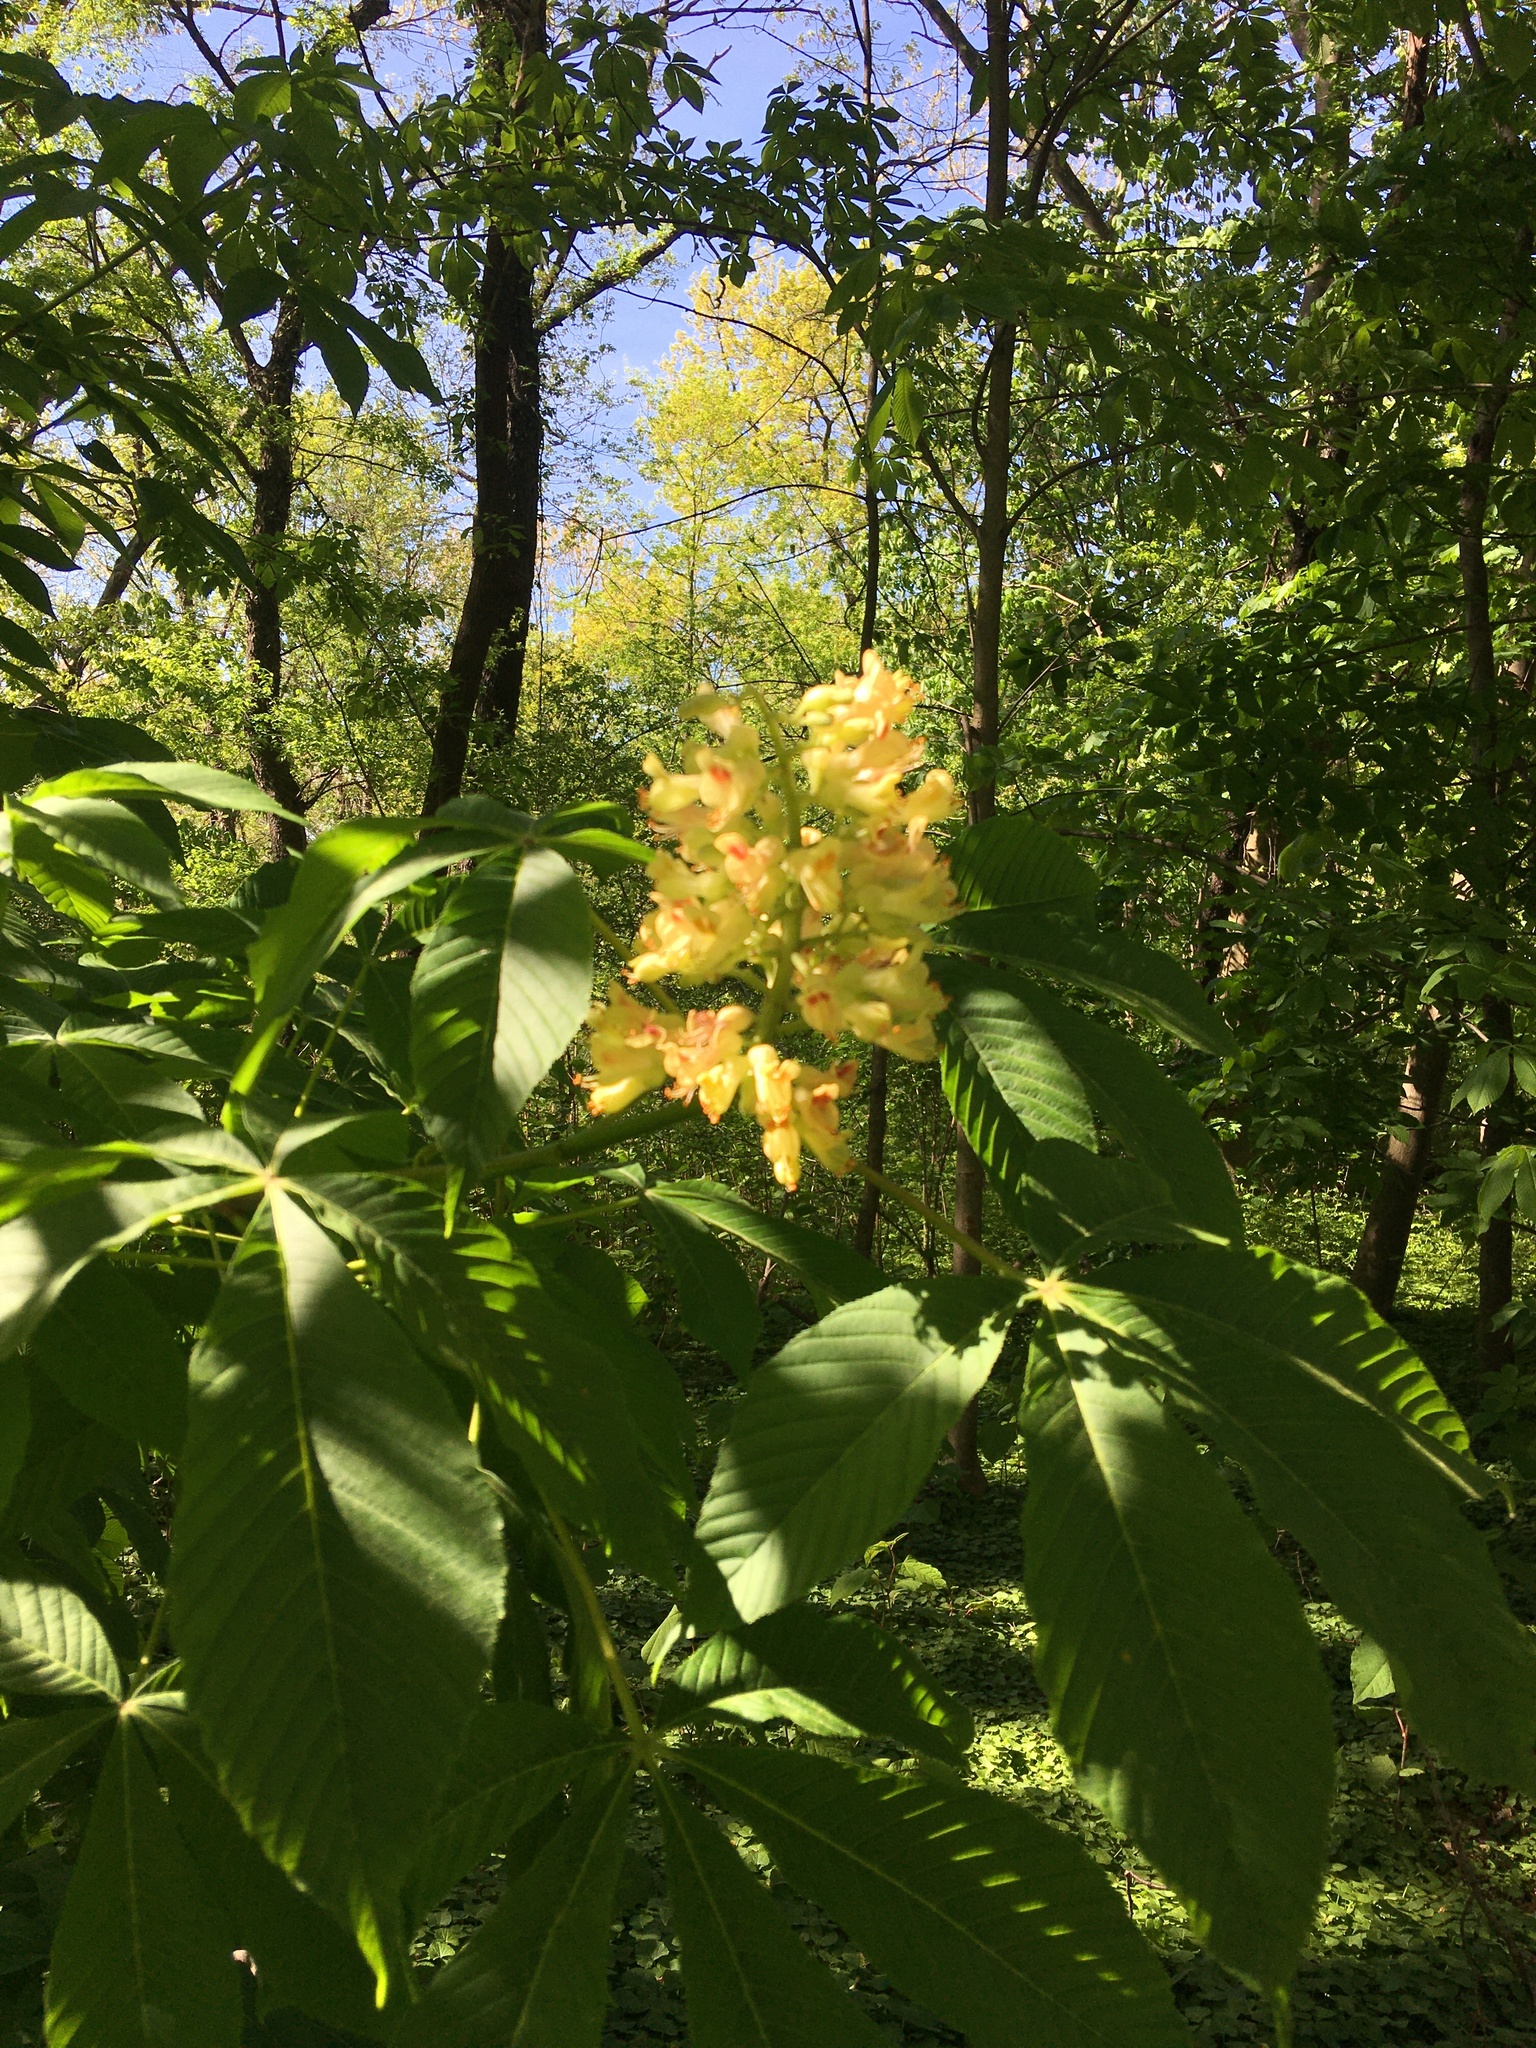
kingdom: Plantae
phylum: Tracheophyta
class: Magnoliopsida
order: Sapindales
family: Sapindaceae
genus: Aesculus
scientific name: Aesculus flava
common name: Yellow buckeye
